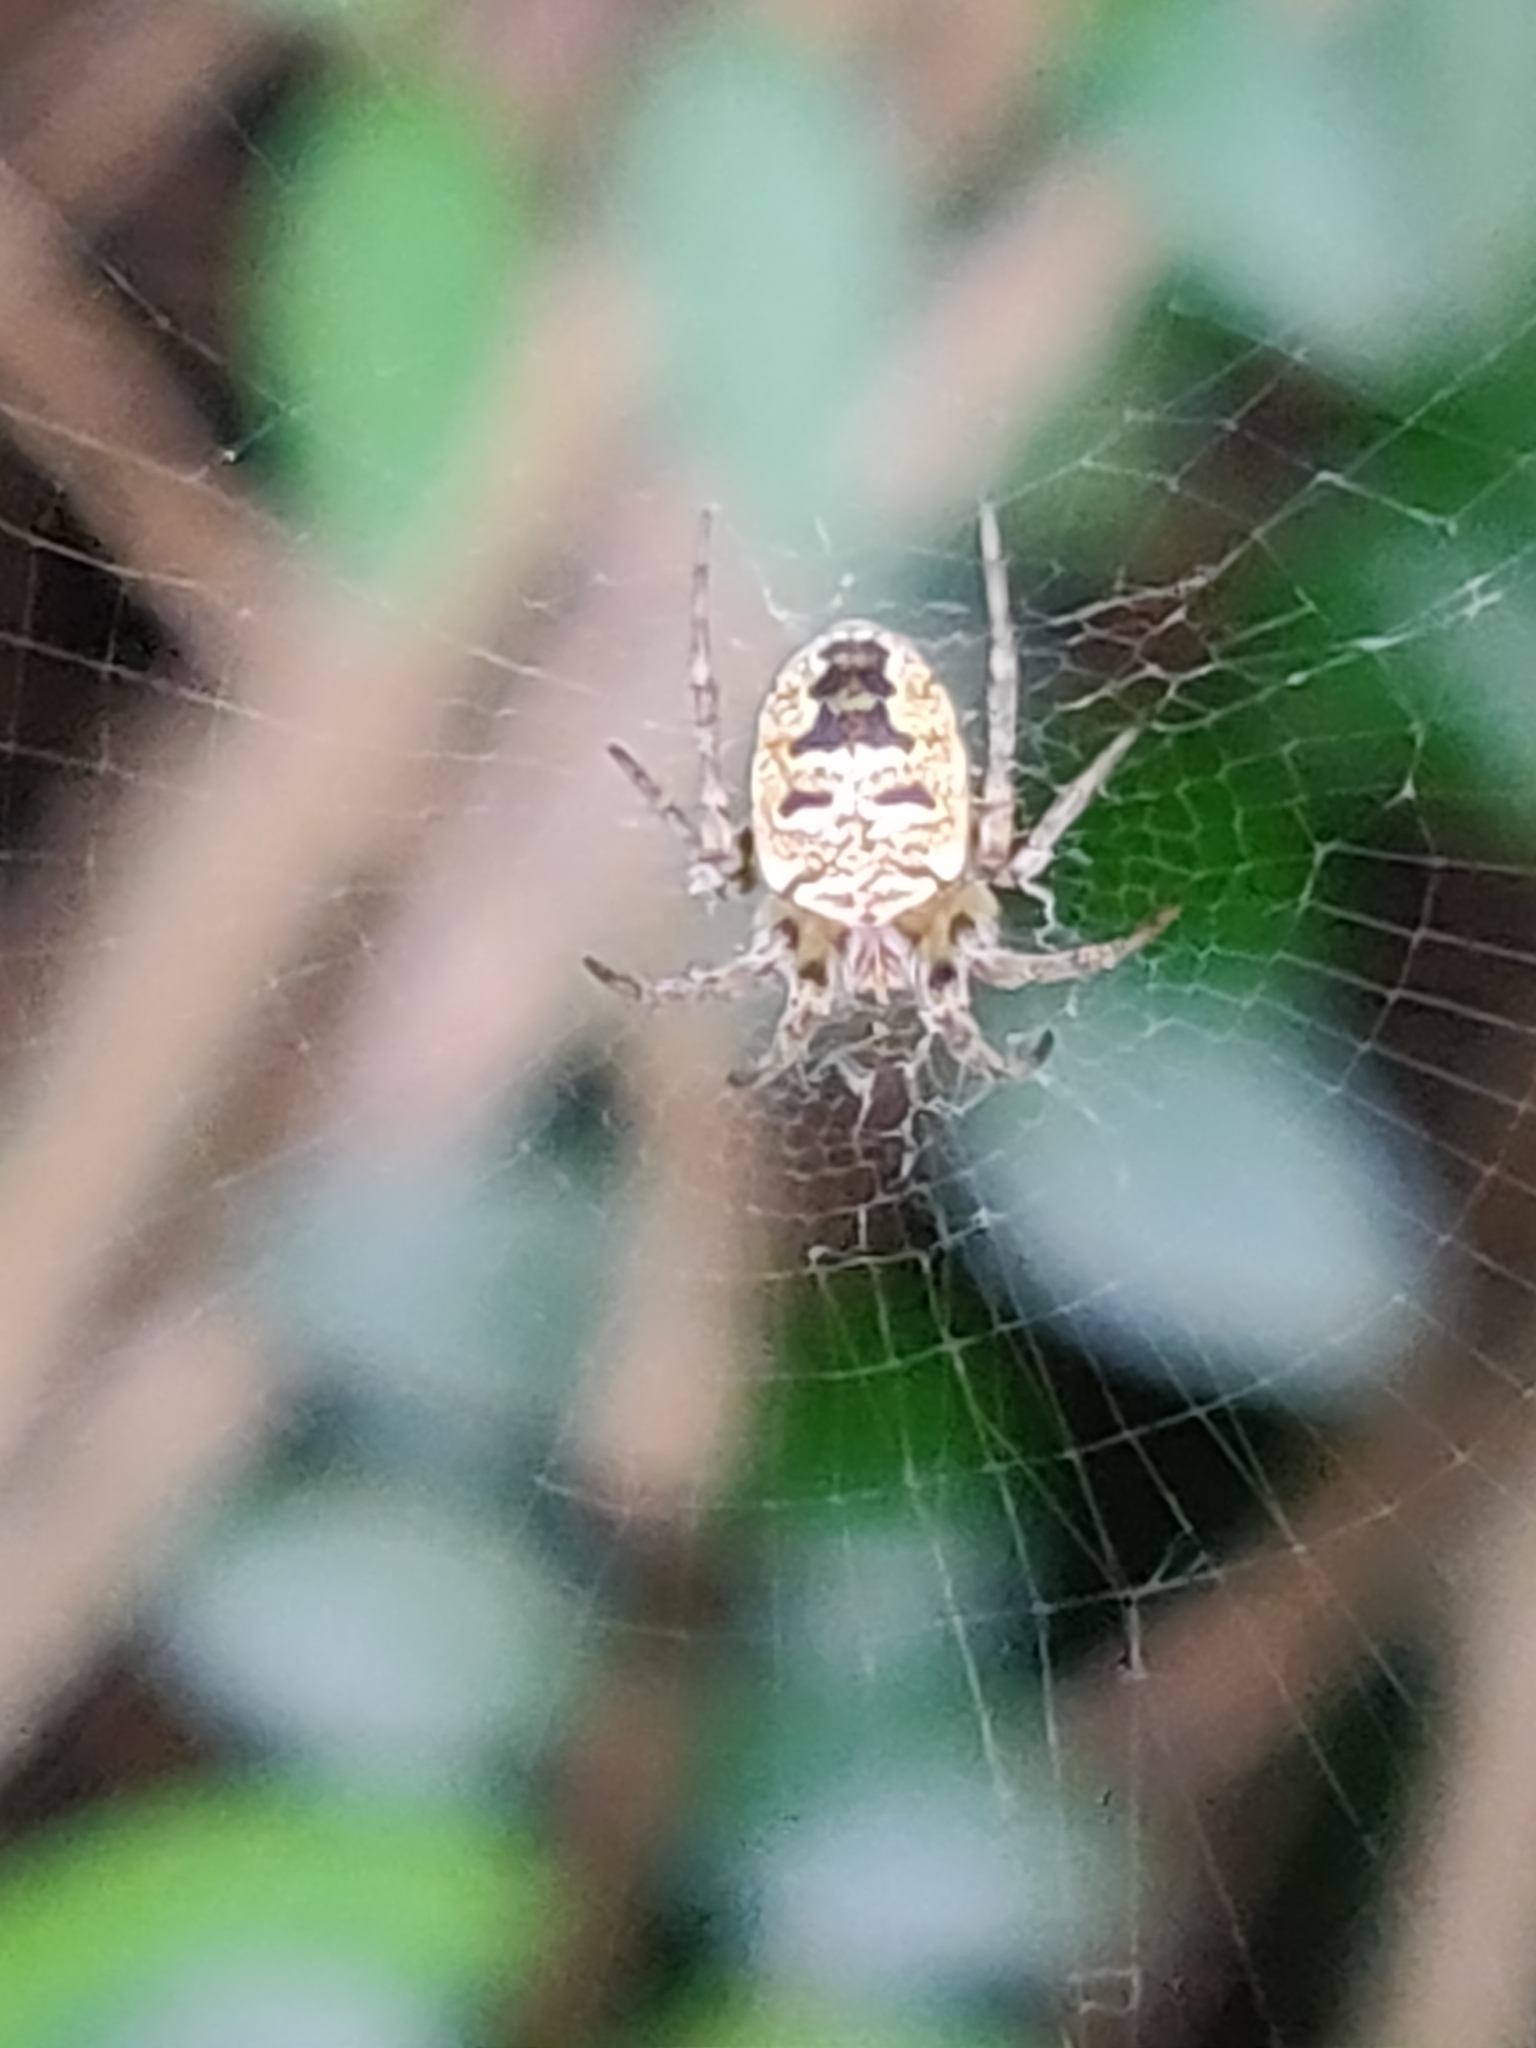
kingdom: Animalia
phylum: Arthropoda
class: Arachnida
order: Araneae
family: Araneidae
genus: Zilla
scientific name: Zilla diodia
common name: Zilla diodia
